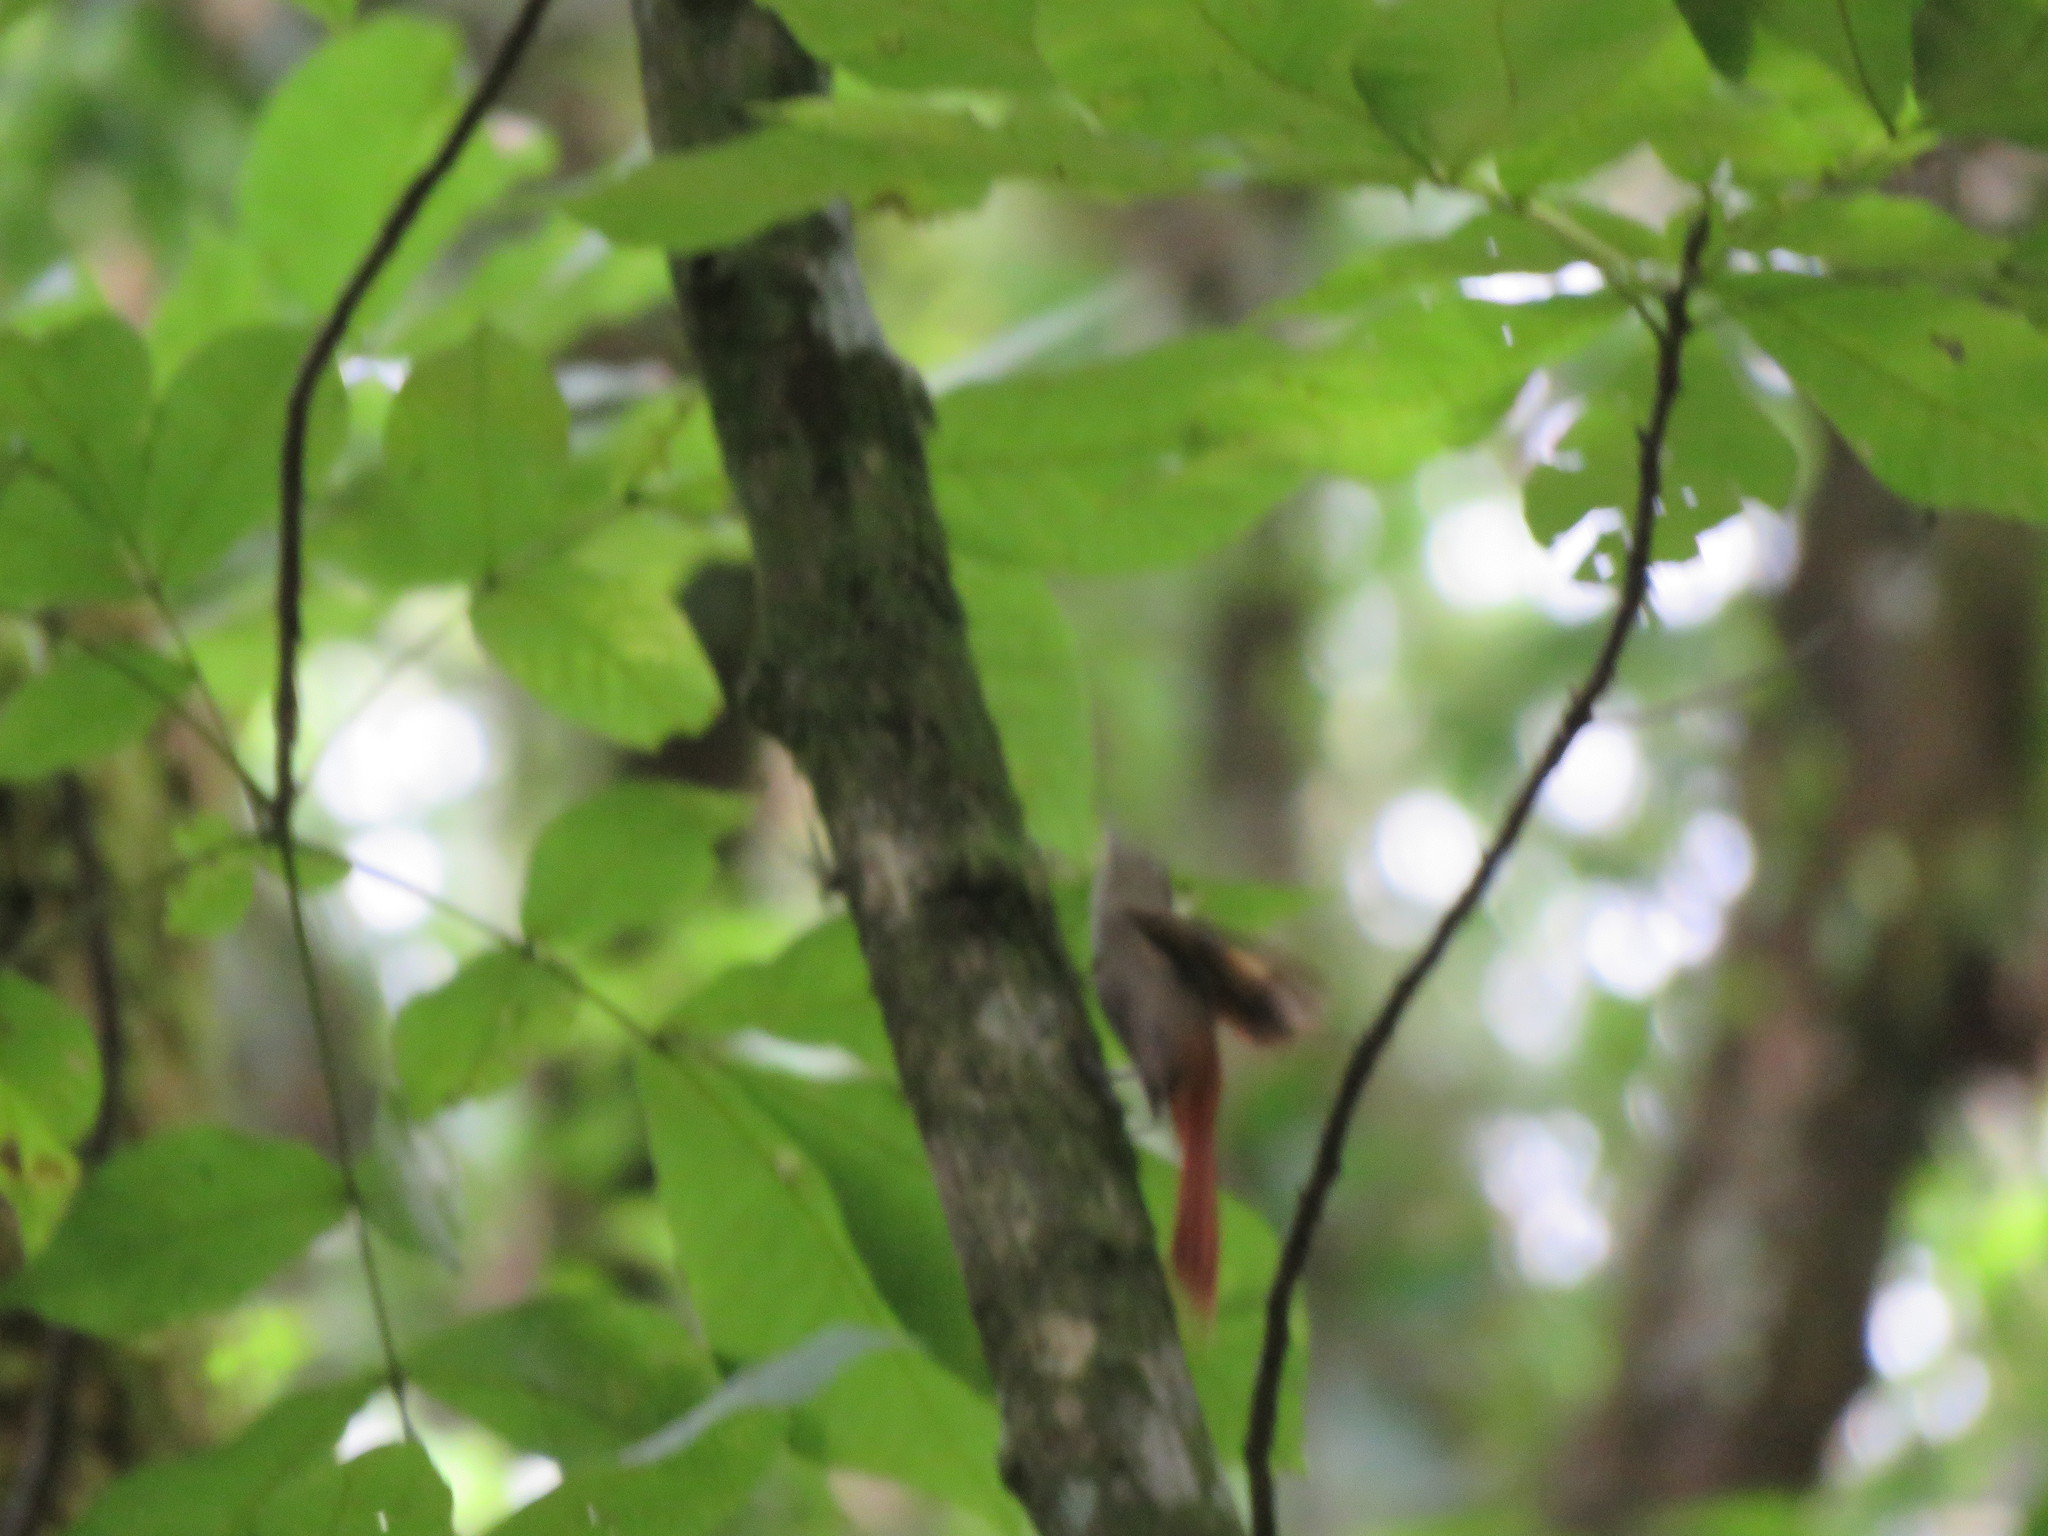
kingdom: Animalia
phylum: Chordata
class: Aves
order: Passeriformes
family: Furnariidae
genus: Sittasomus
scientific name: Sittasomus griseicapillus
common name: Olivaceous woodcreeper
